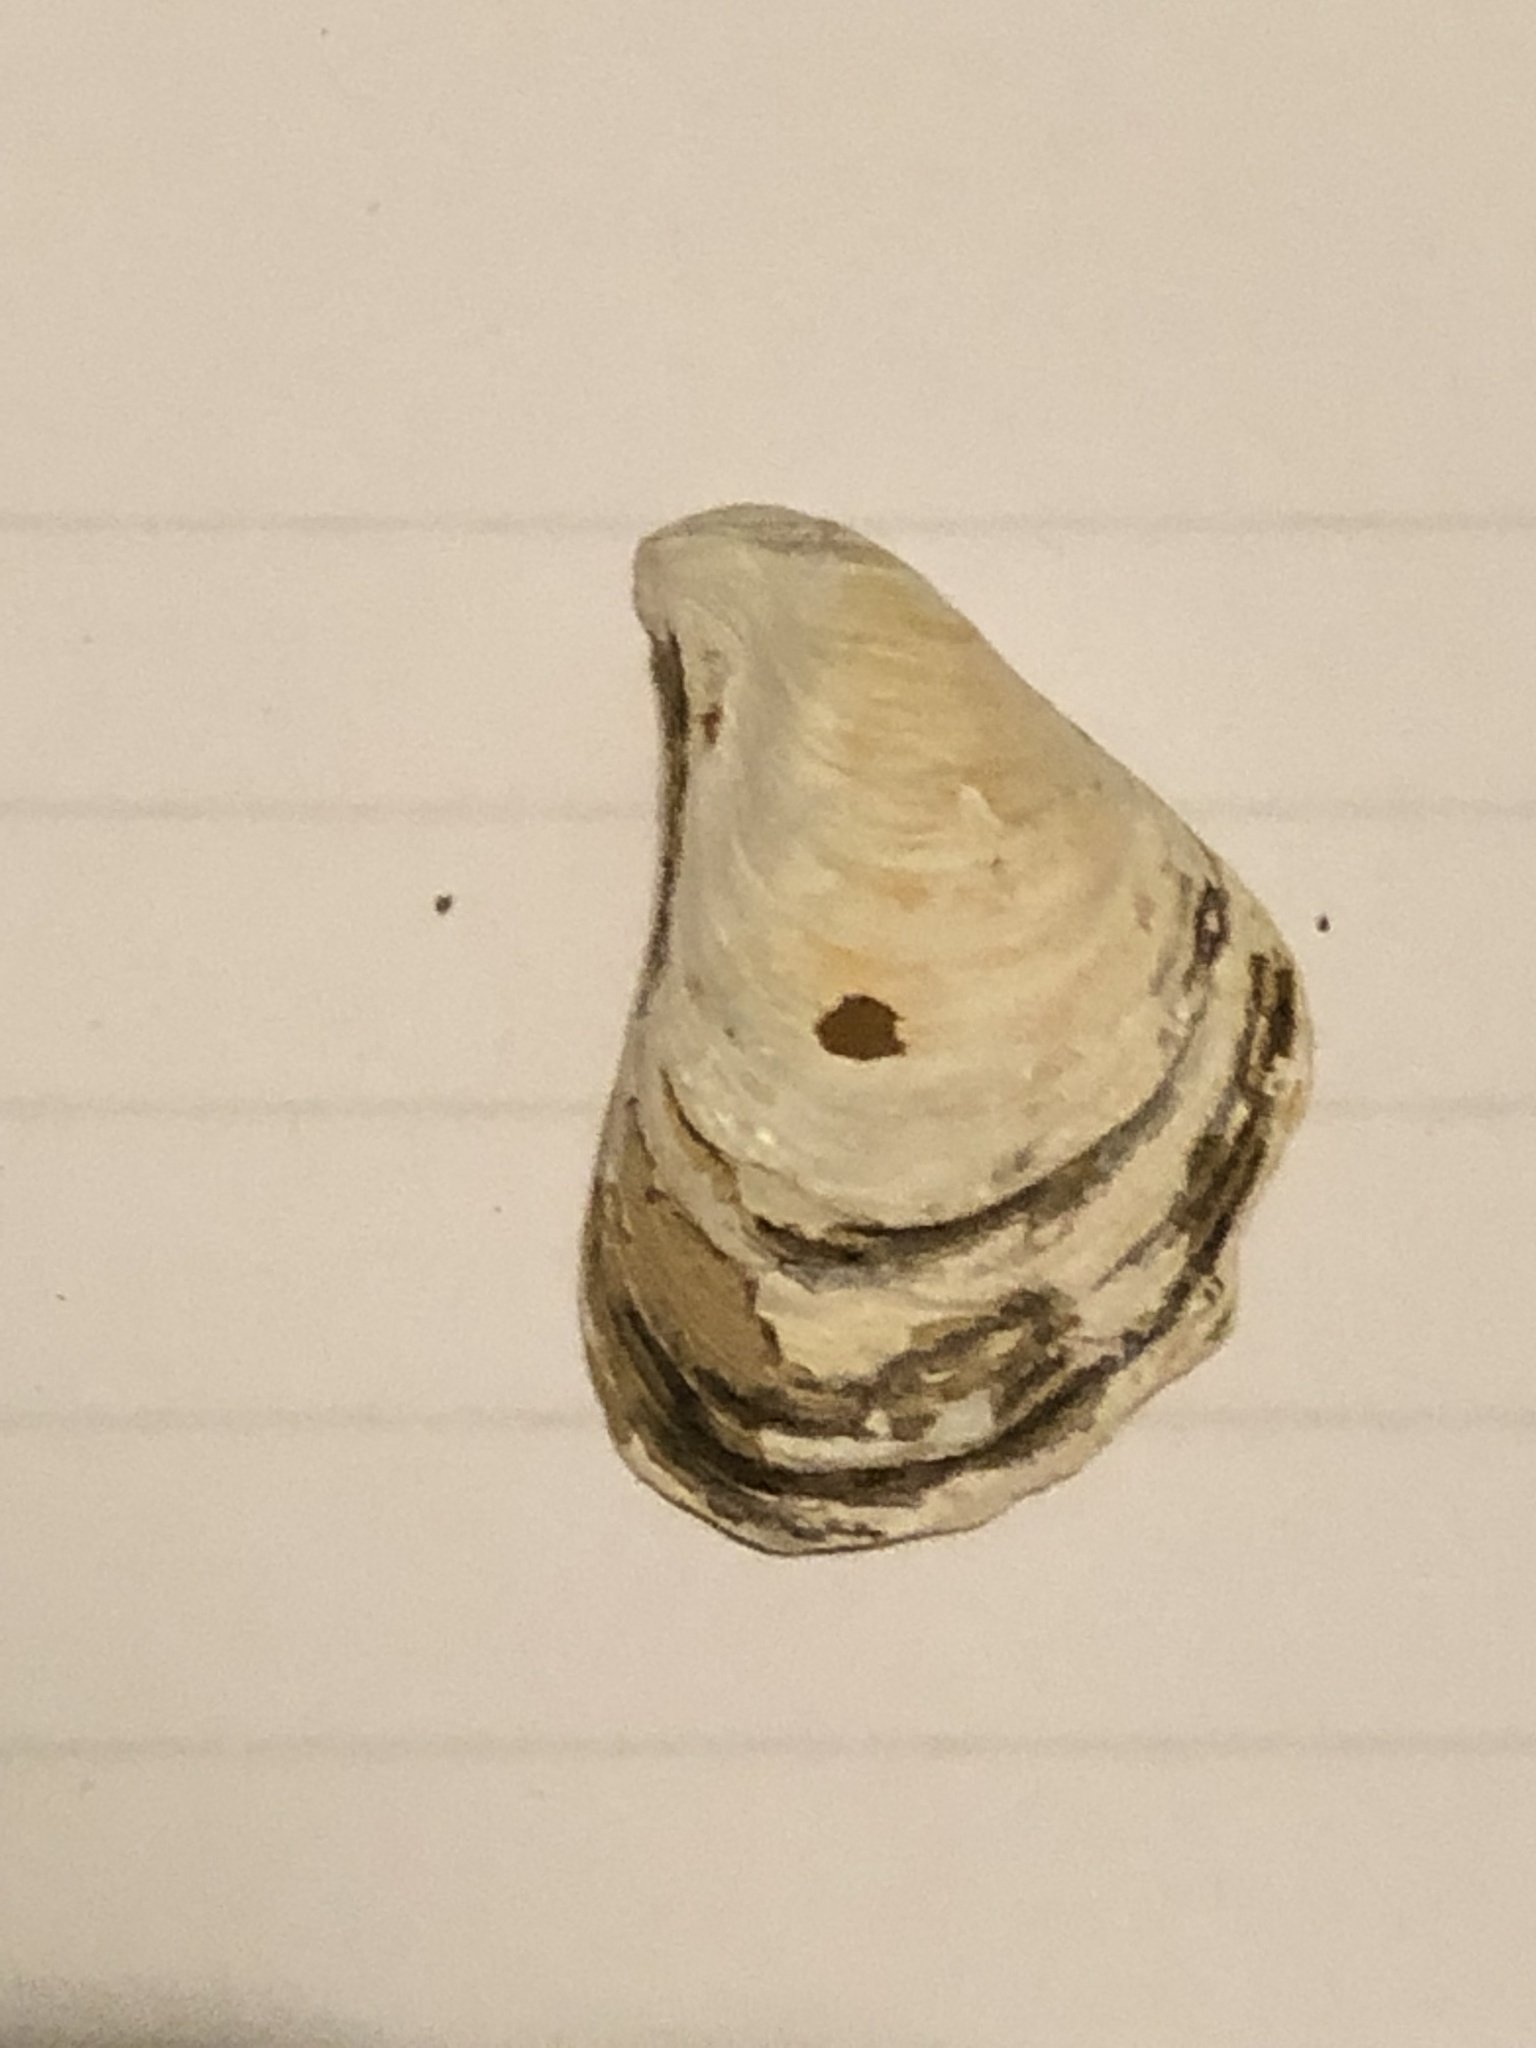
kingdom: Animalia
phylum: Mollusca
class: Bivalvia
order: Myida
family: Dreissenidae
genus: Dreissena
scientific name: Dreissena bugensis
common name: Quagga mussel
